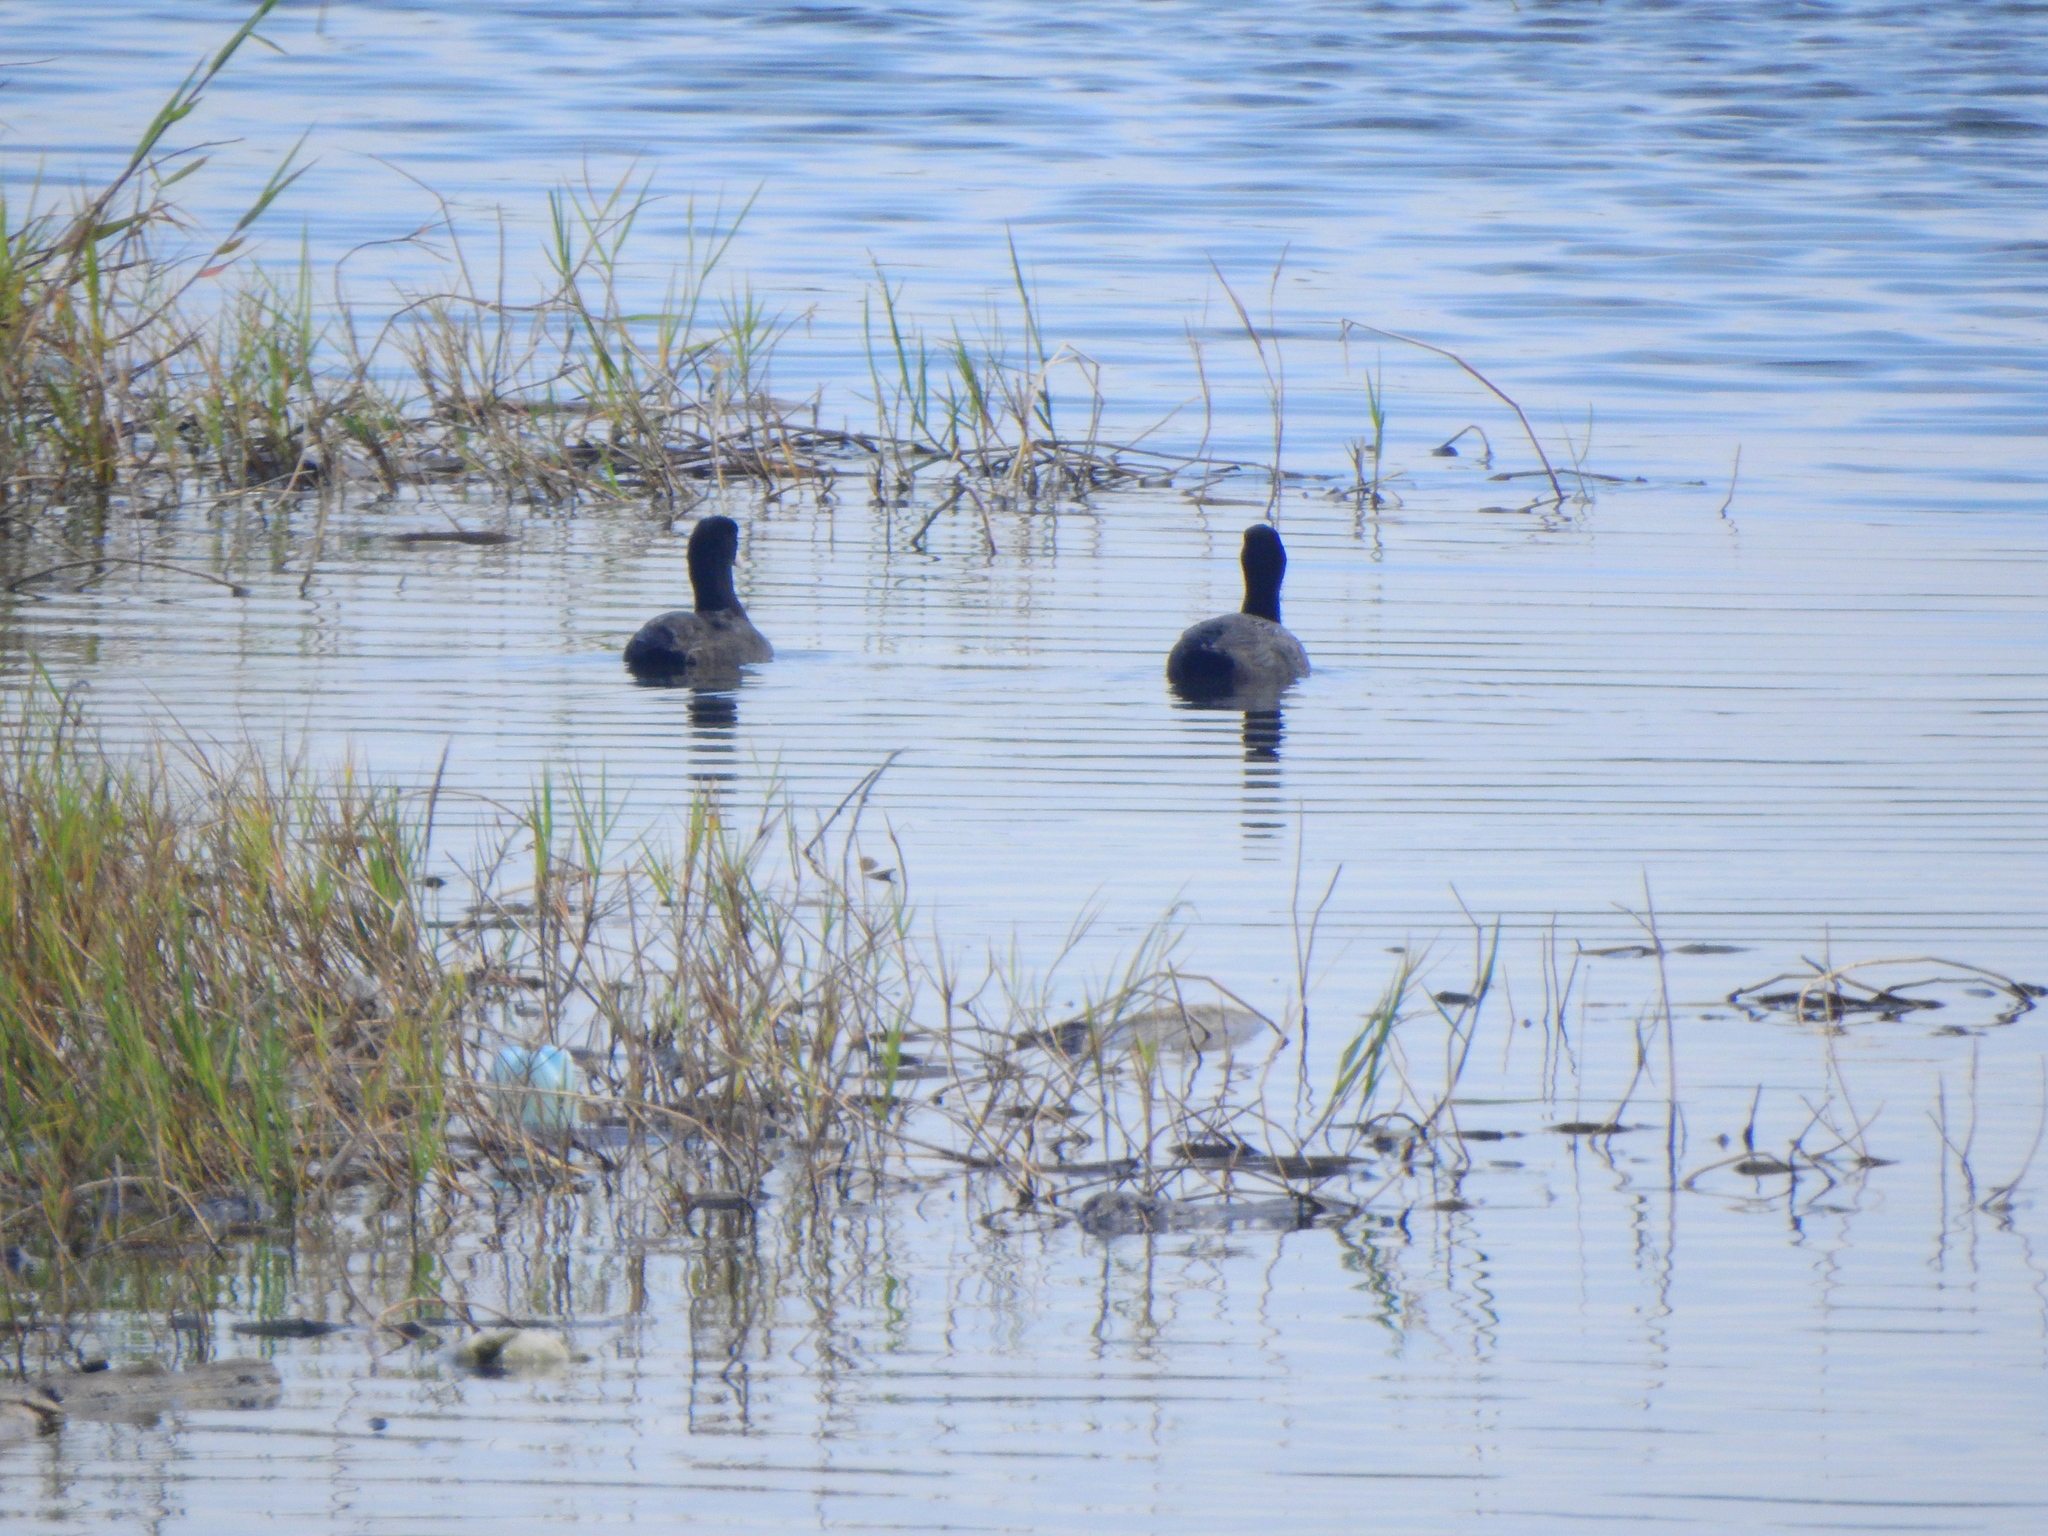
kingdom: Animalia
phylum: Chordata
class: Aves
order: Gruiformes
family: Rallidae
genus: Fulica
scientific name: Fulica atra
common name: Eurasian coot
